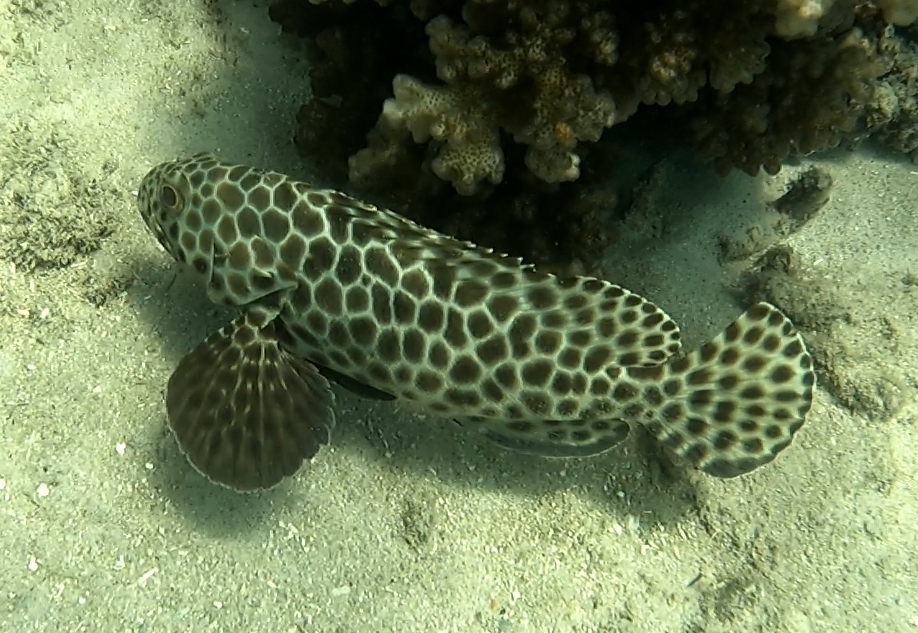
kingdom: Animalia
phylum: Chordata
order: Perciformes
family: Serranidae
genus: Epinephelus
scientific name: Epinephelus quoyanus
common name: Longfin grouper
